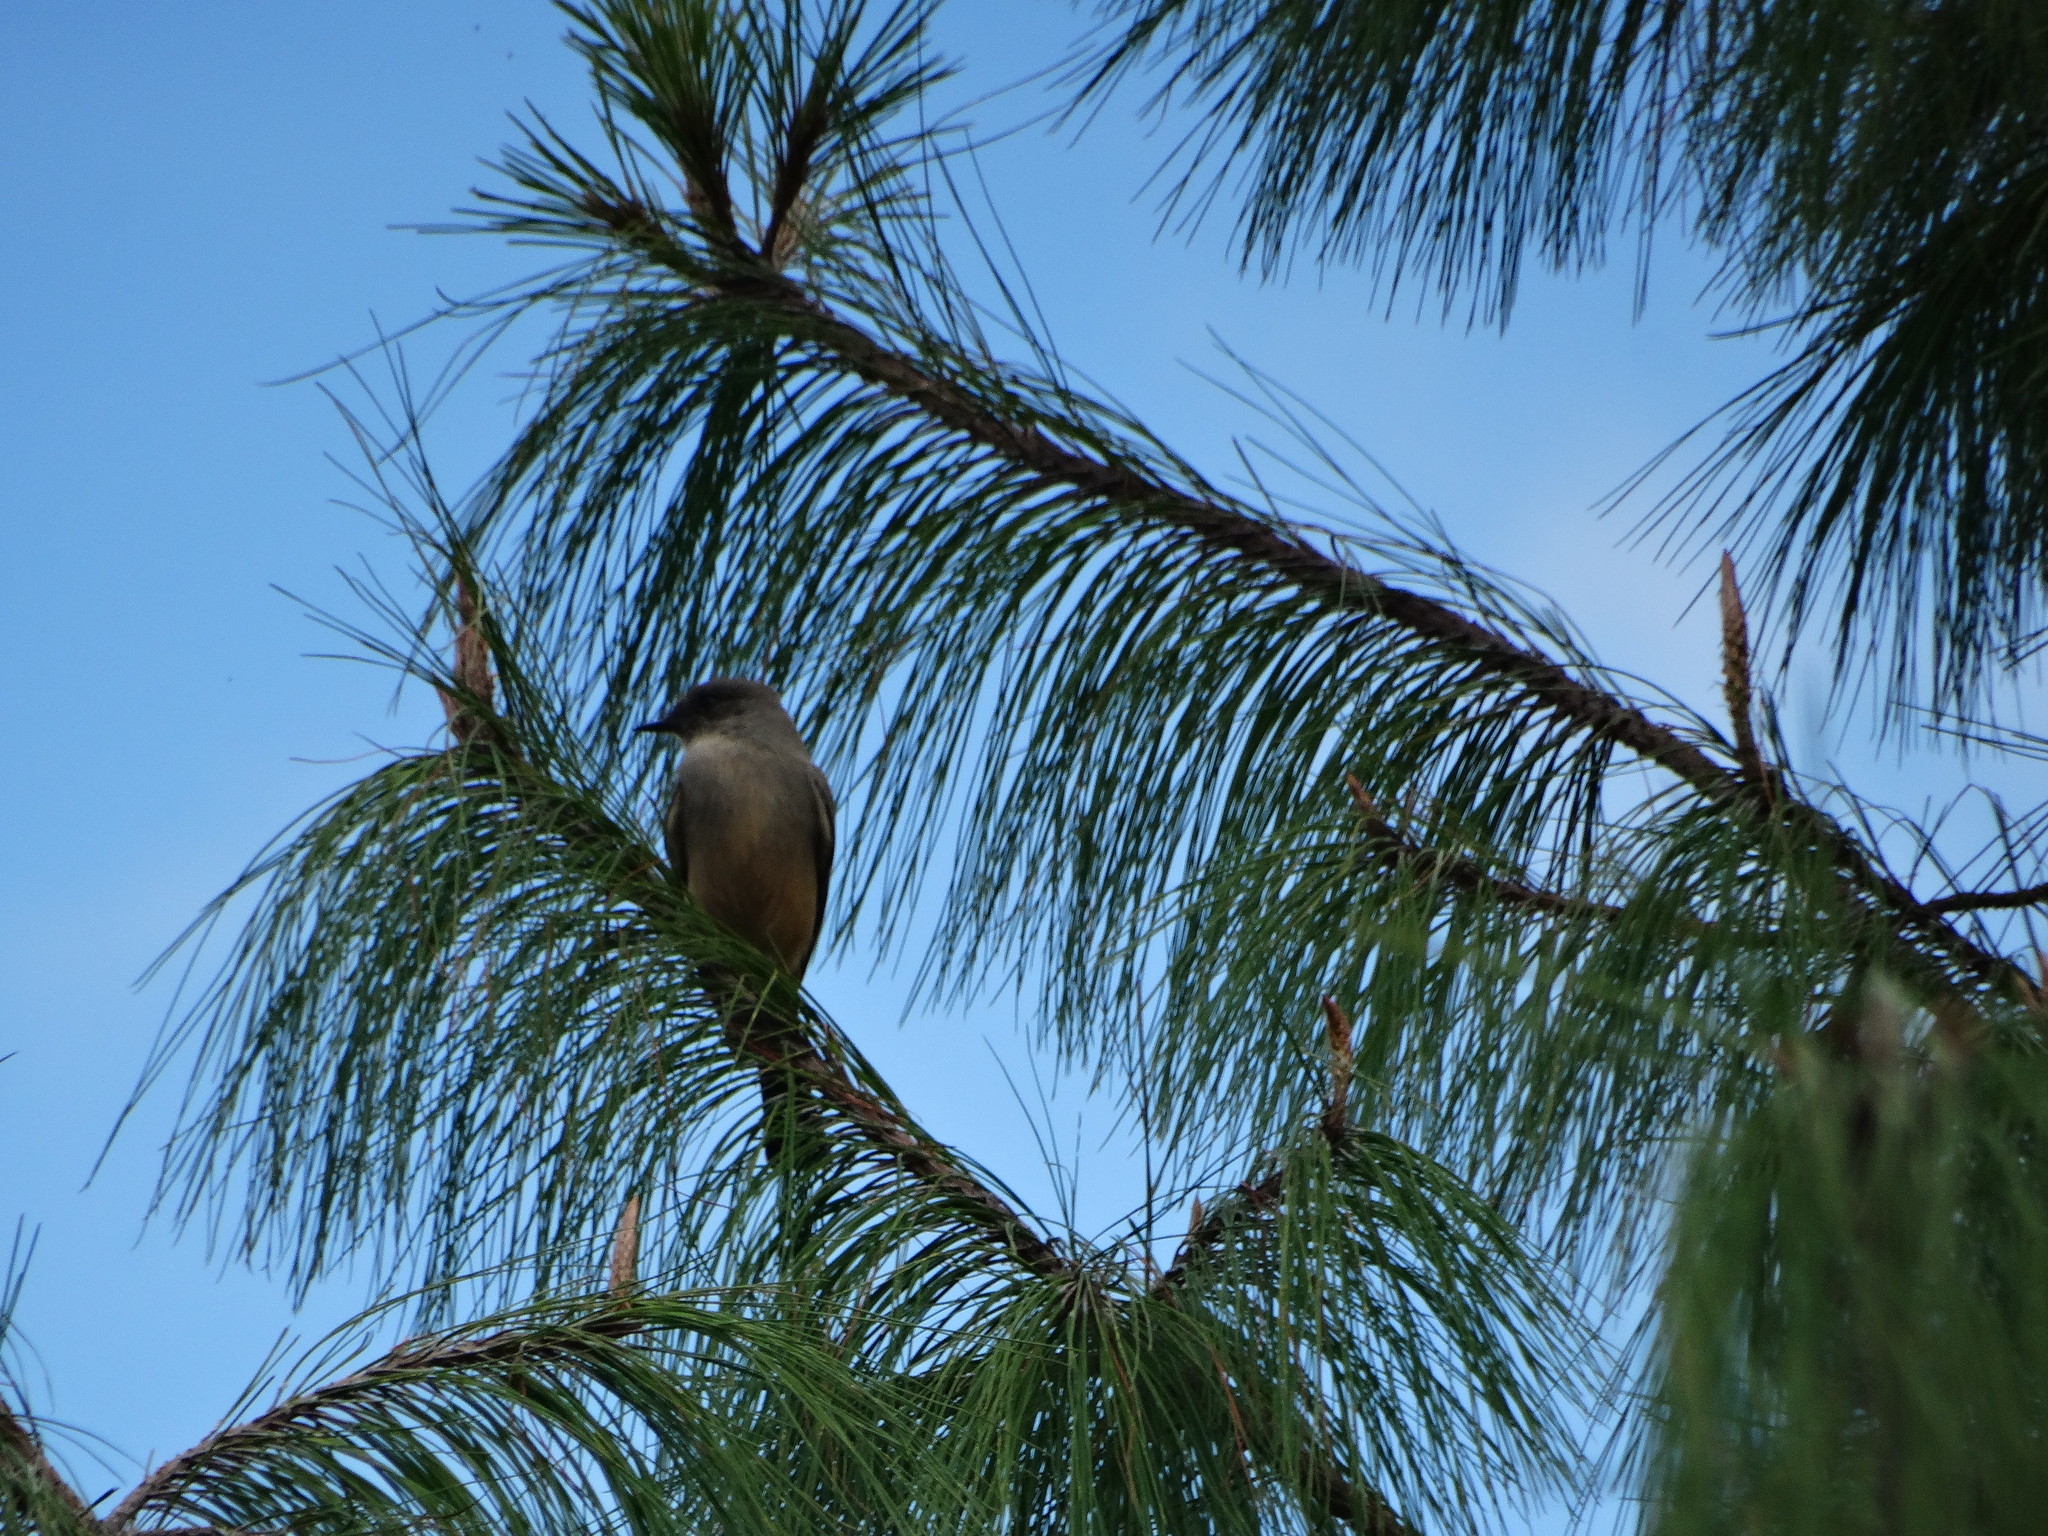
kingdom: Animalia
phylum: Chordata
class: Aves
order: Passeriformes
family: Tyrannidae
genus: Sayornis
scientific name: Sayornis saya
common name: Say's phoebe
